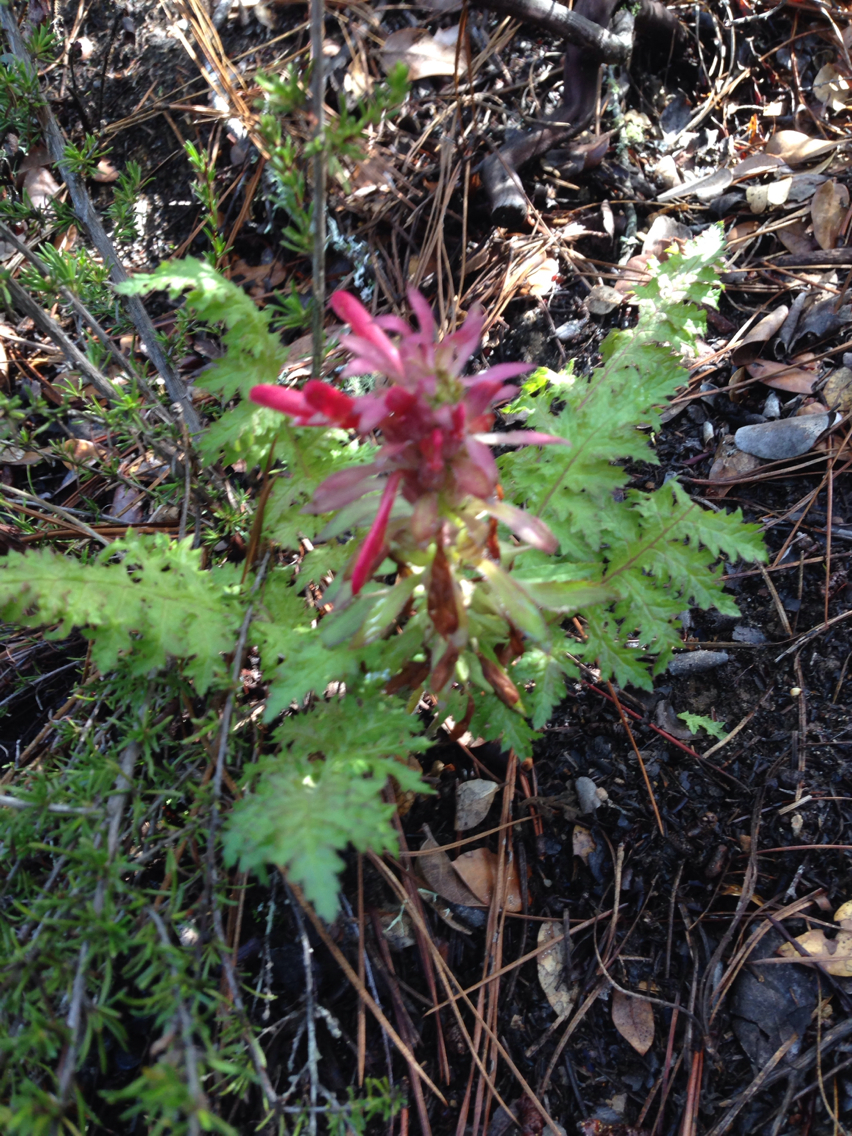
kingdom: Plantae
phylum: Tracheophyta
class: Magnoliopsida
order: Lamiales
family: Orobanchaceae
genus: Pedicularis
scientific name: Pedicularis densiflora
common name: Indian warrior
